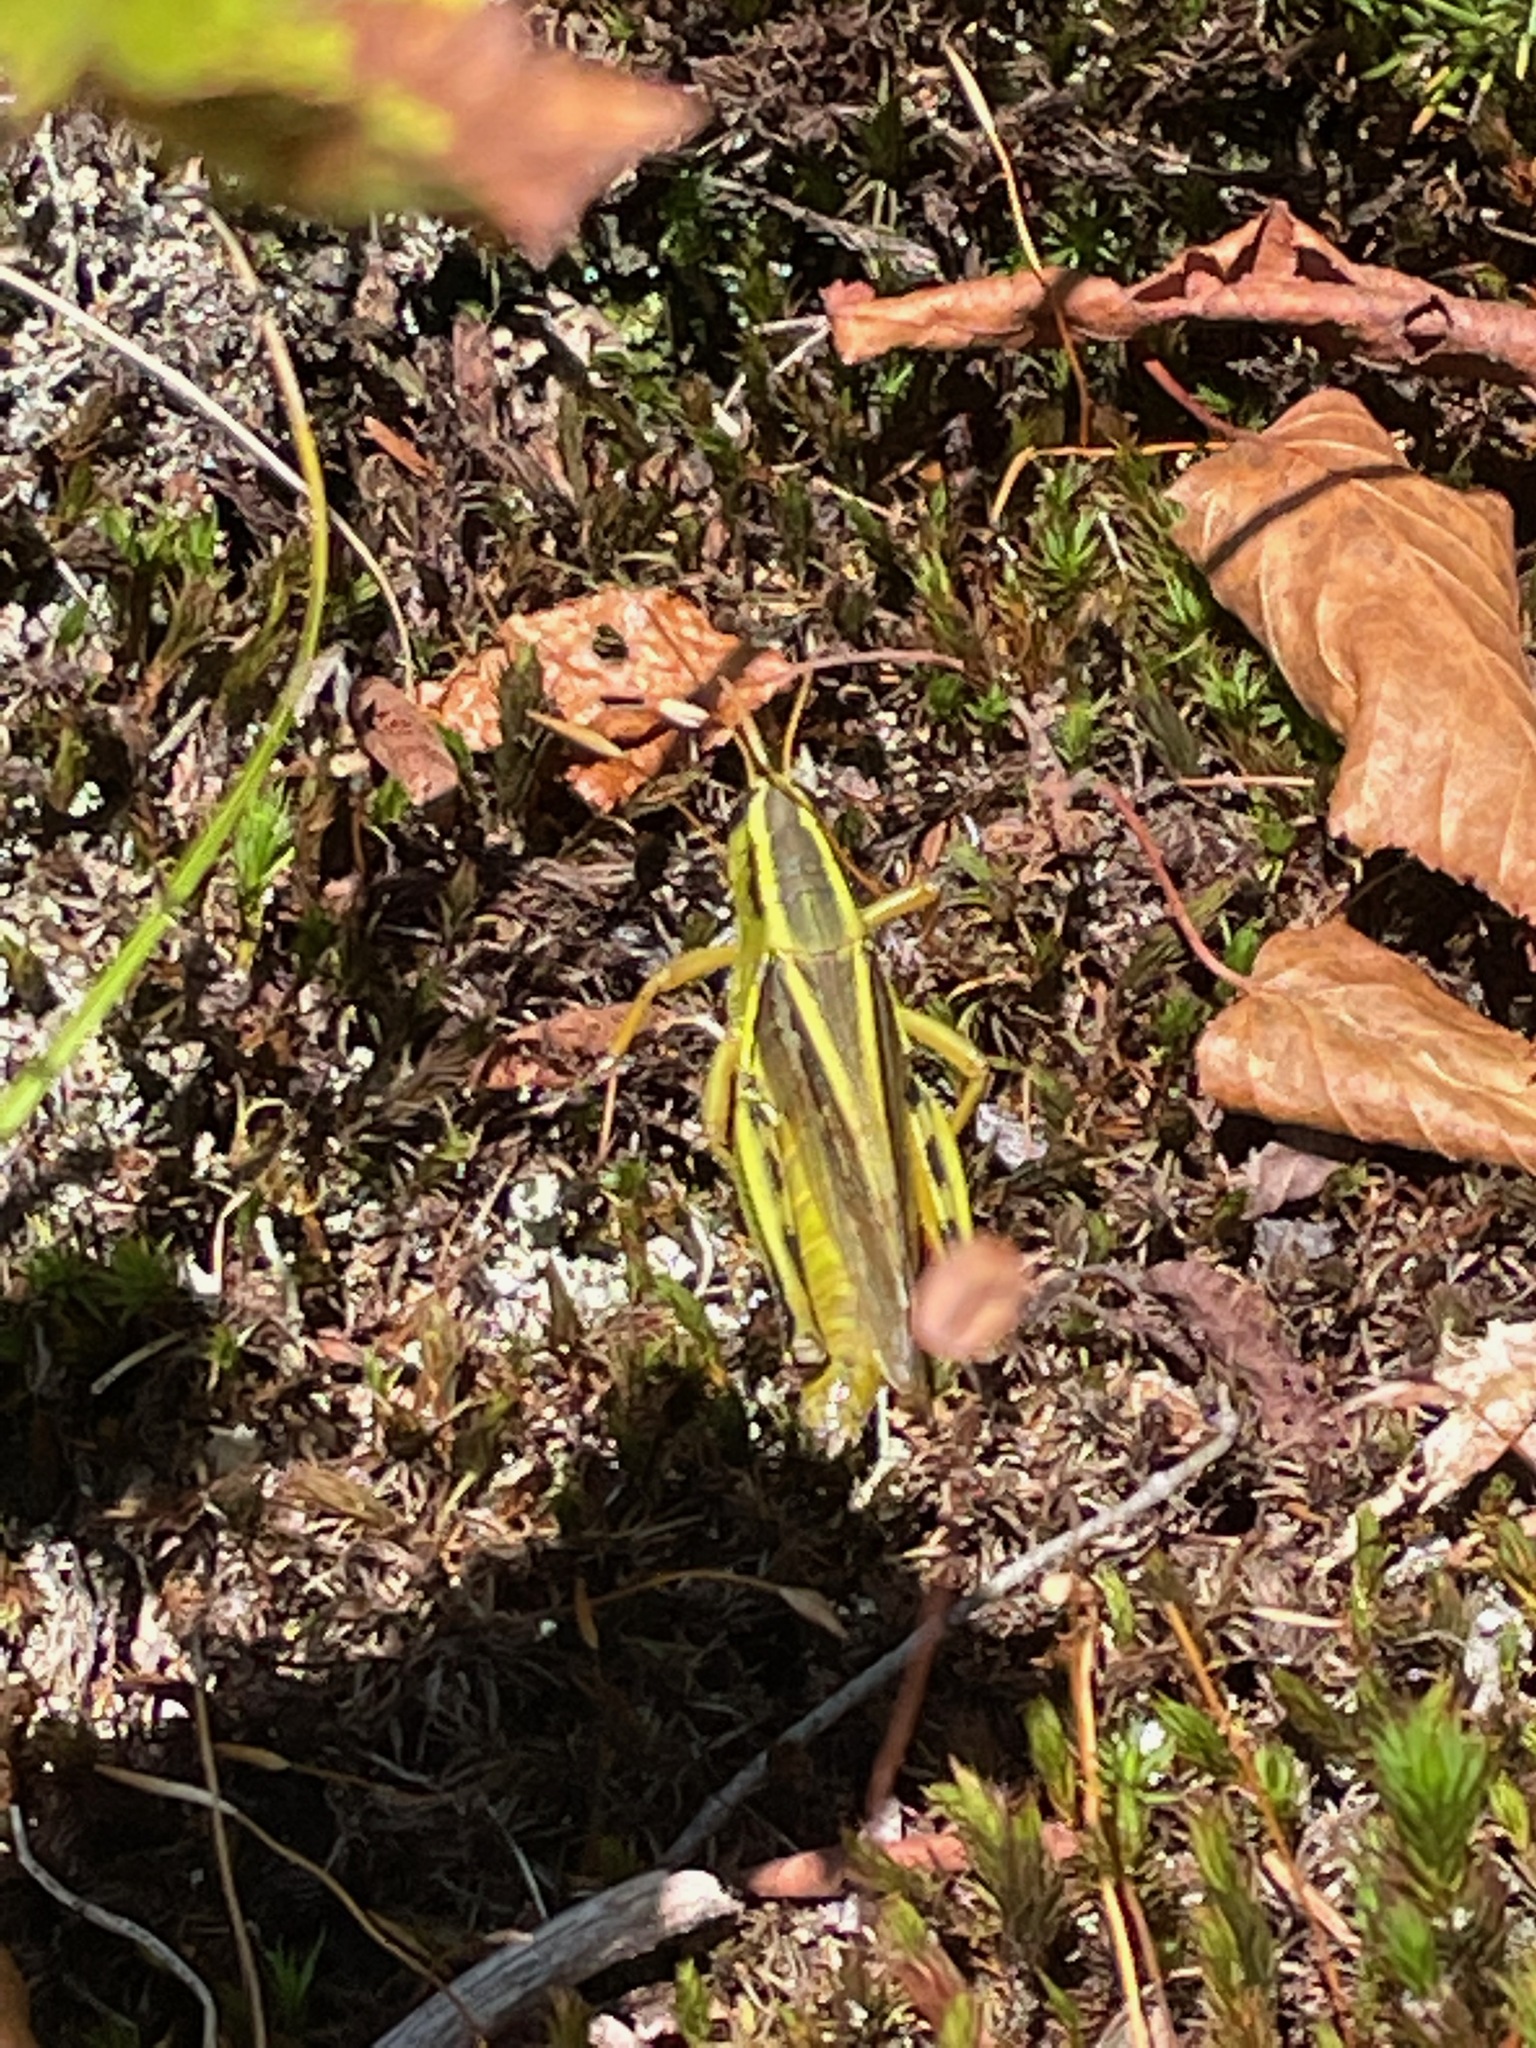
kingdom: Animalia
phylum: Arthropoda
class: Insecta
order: Orthoptera
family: Acrididae
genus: Melanoplus
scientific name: Melanoplus bivittatus
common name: Two-striped grasshopper
